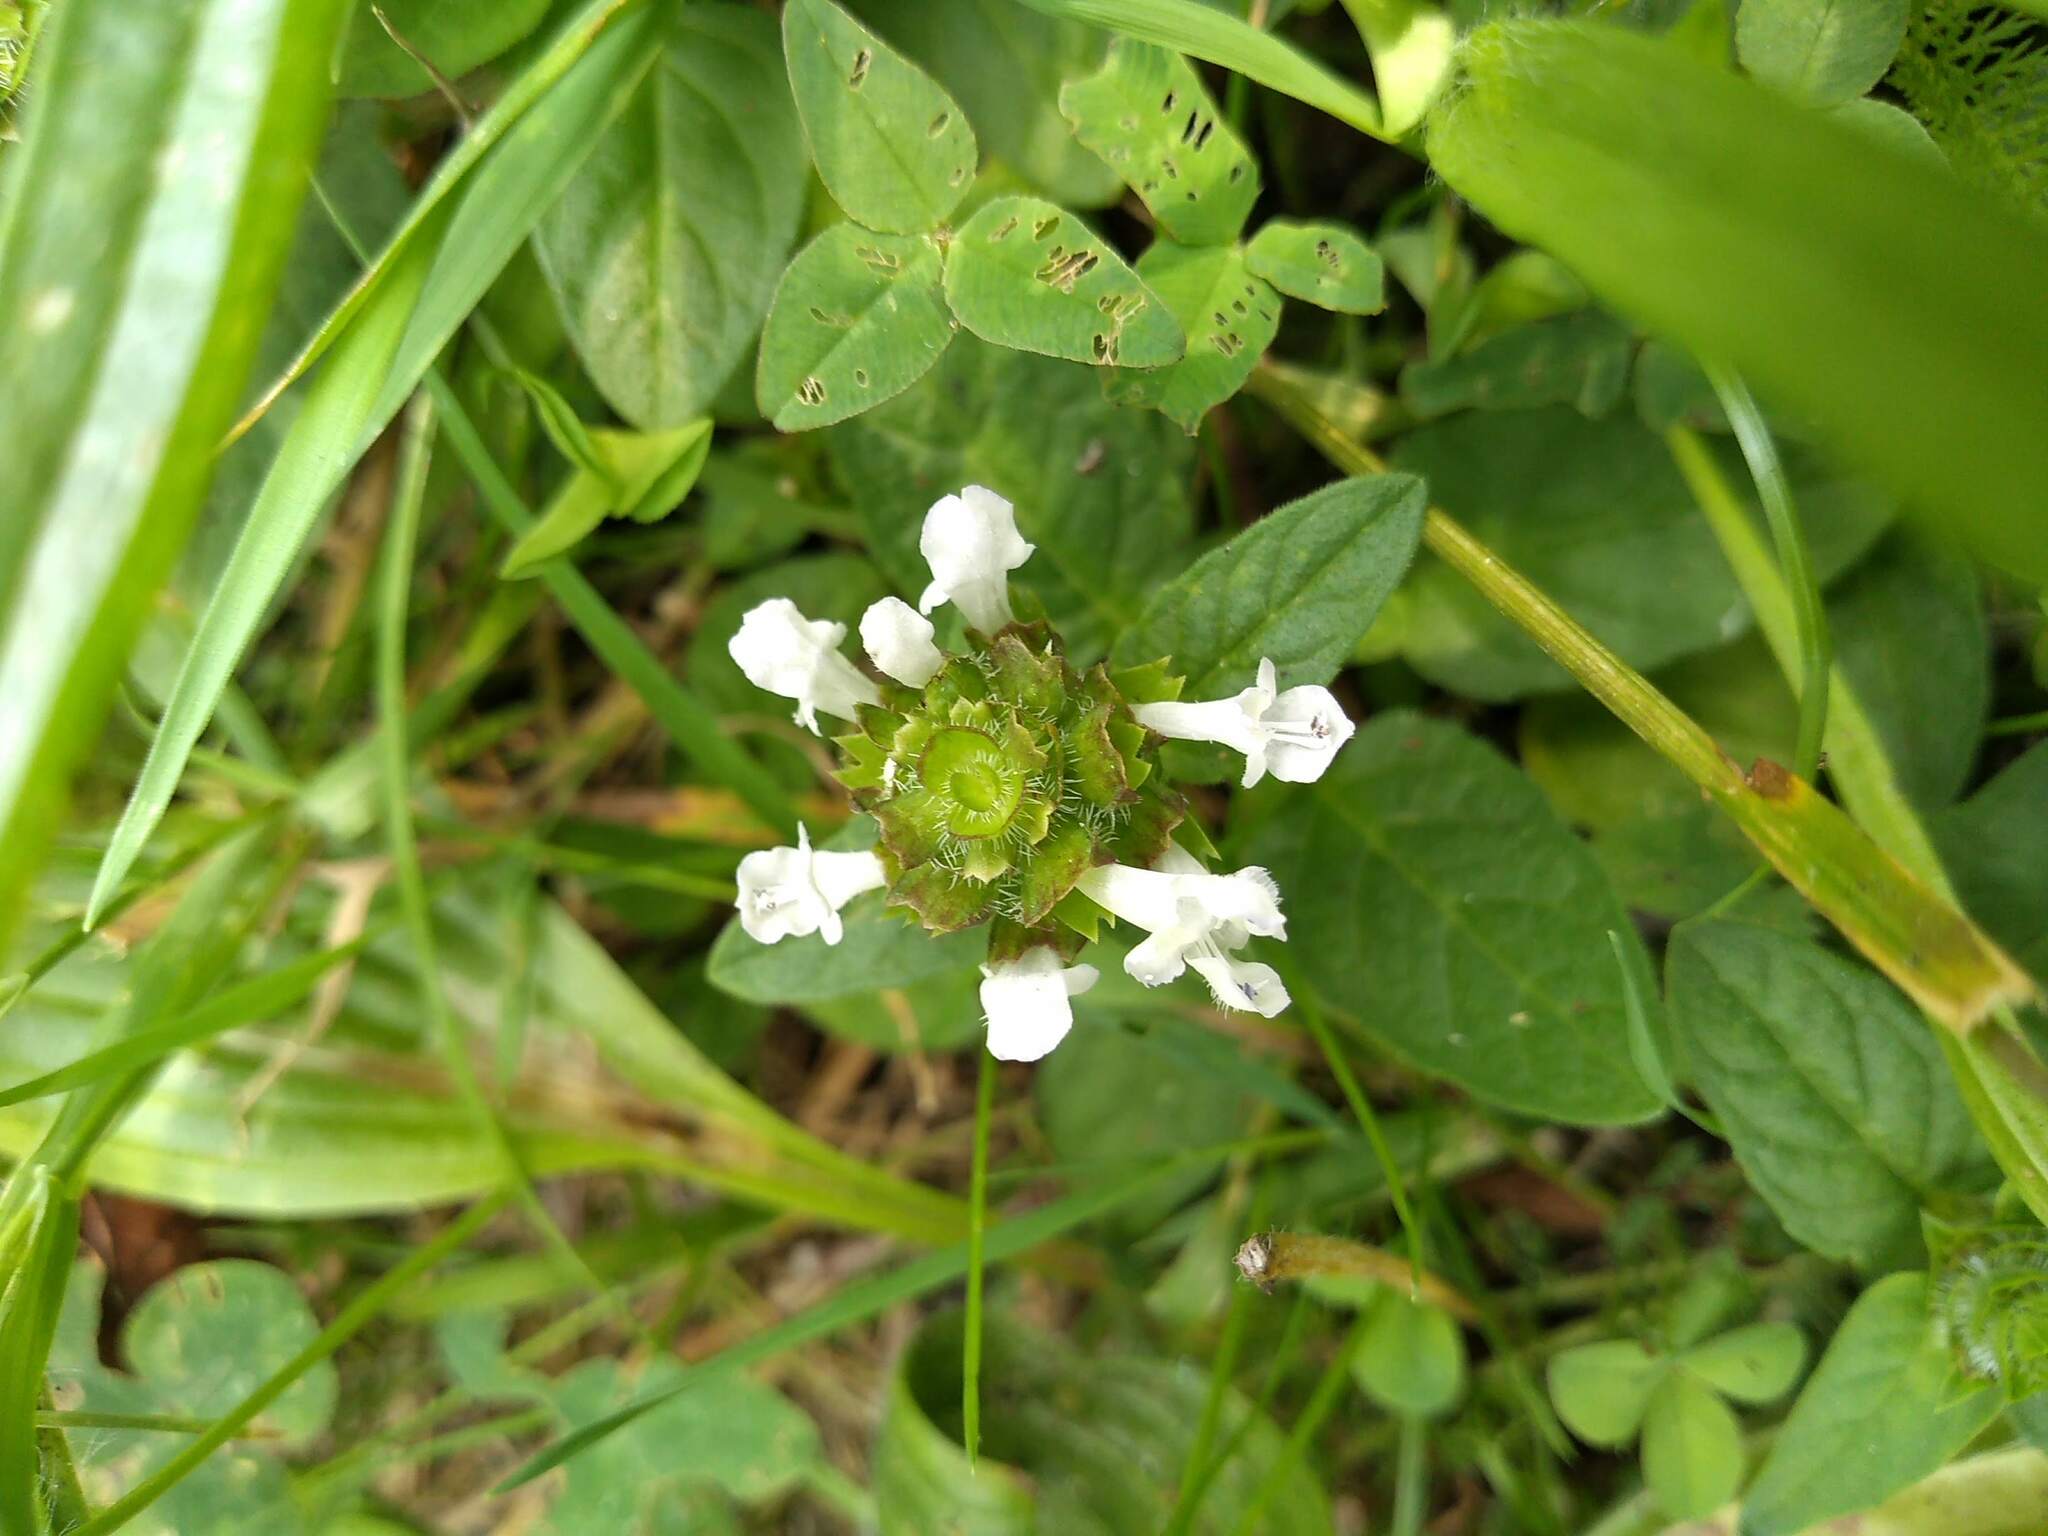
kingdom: Plantae
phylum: Tracheophyta
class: Magnoliopsida
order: Lamiales
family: Lamiaceae
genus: Prunella
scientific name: Prunella vulgaris
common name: Heal-all
